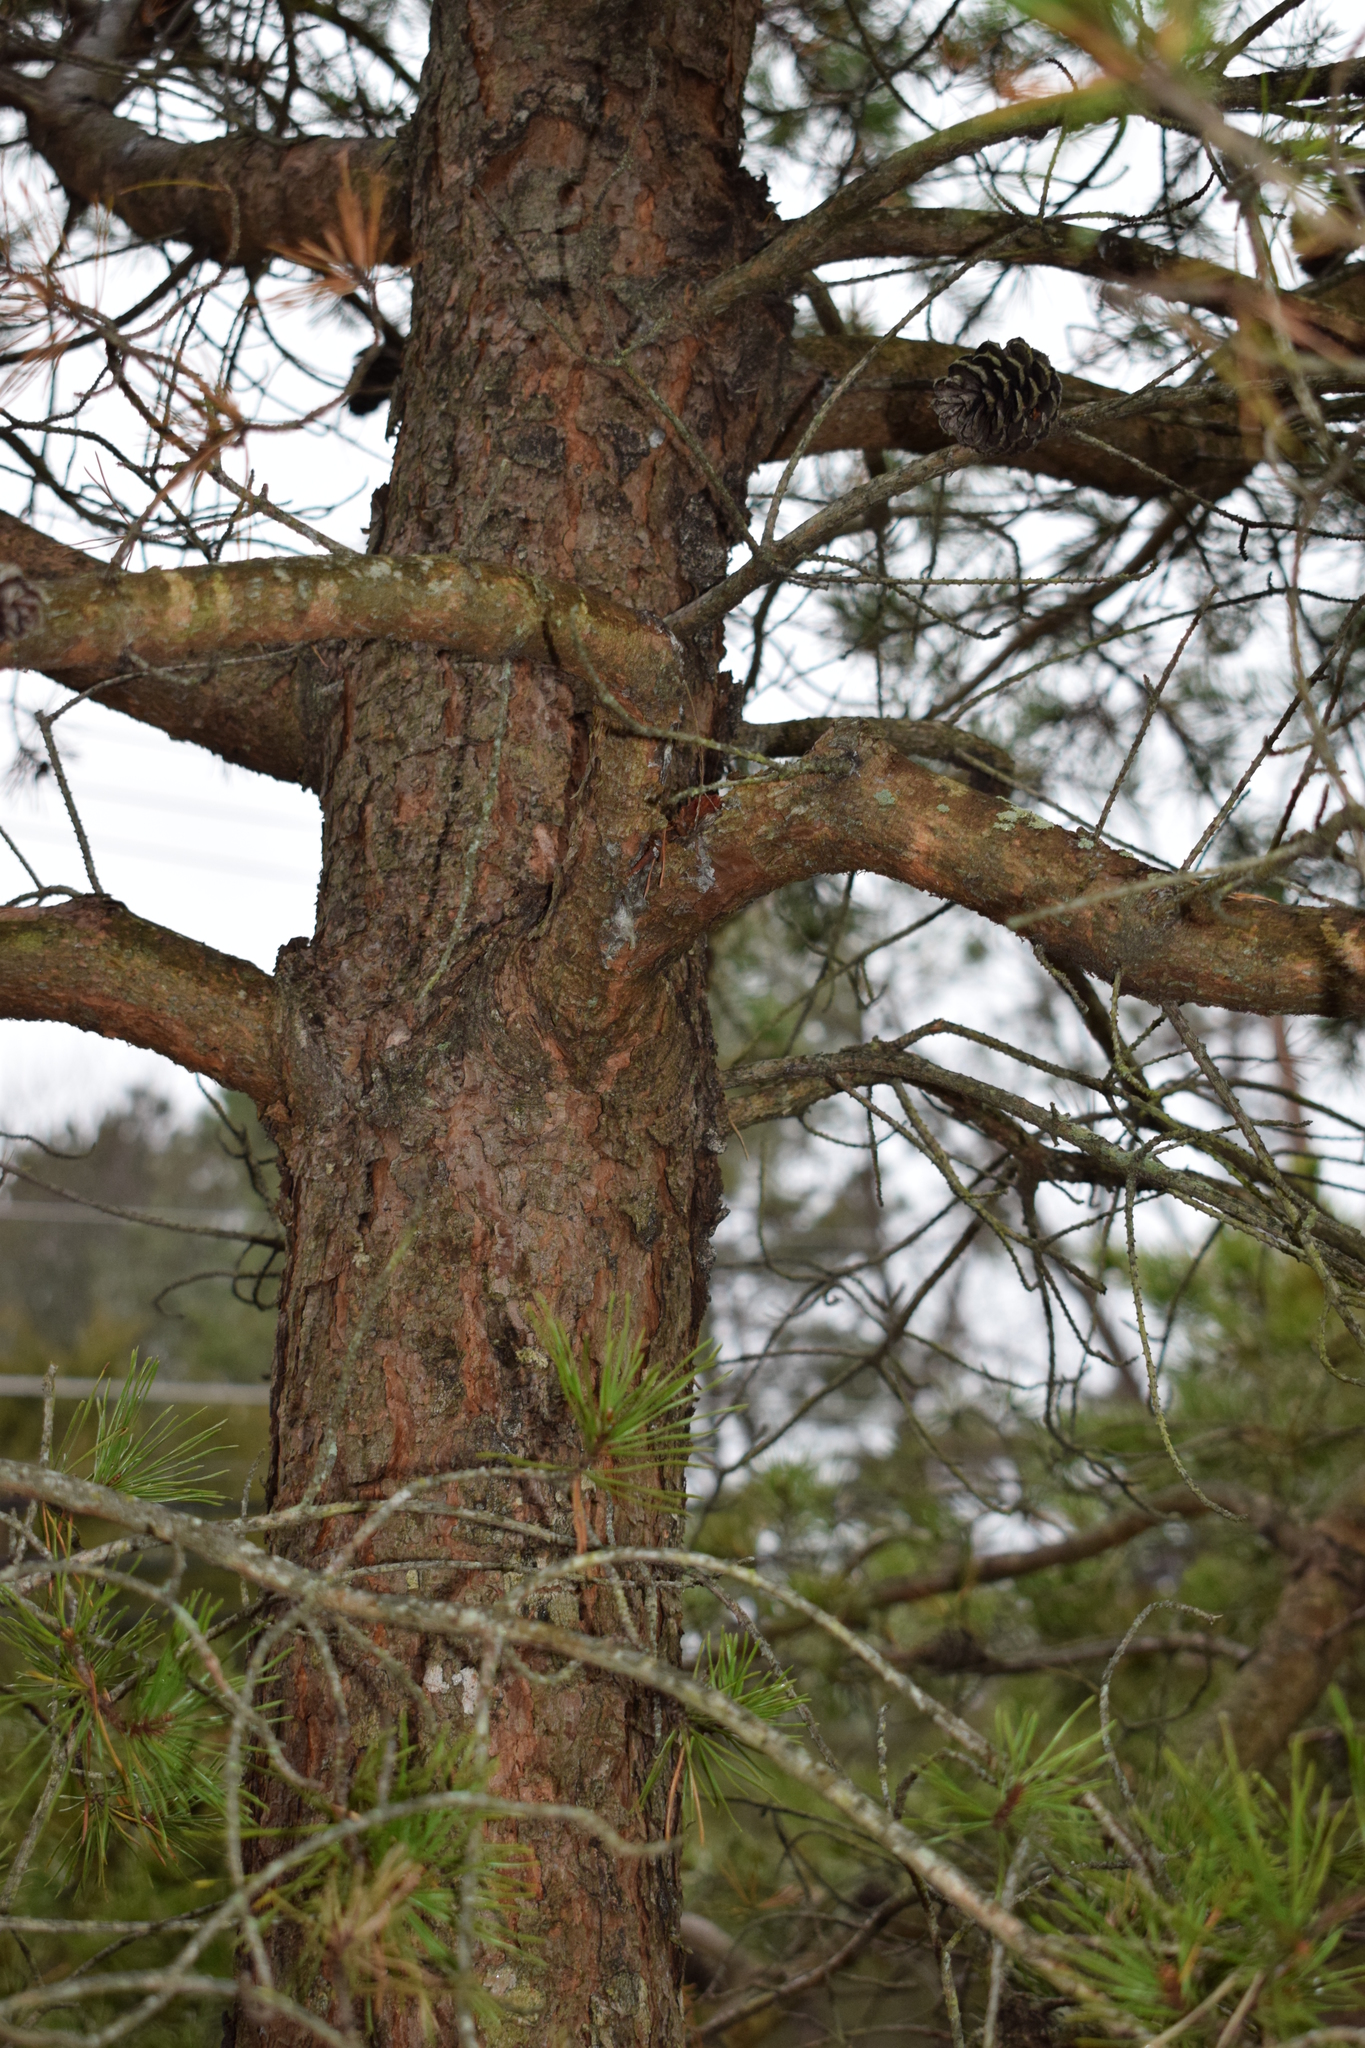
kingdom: Plantae
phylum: Tracheophyta
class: Pinopsida
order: Pinales
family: Pinaceae
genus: Pinus
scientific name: Pinus virginiana
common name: Scrub pine
